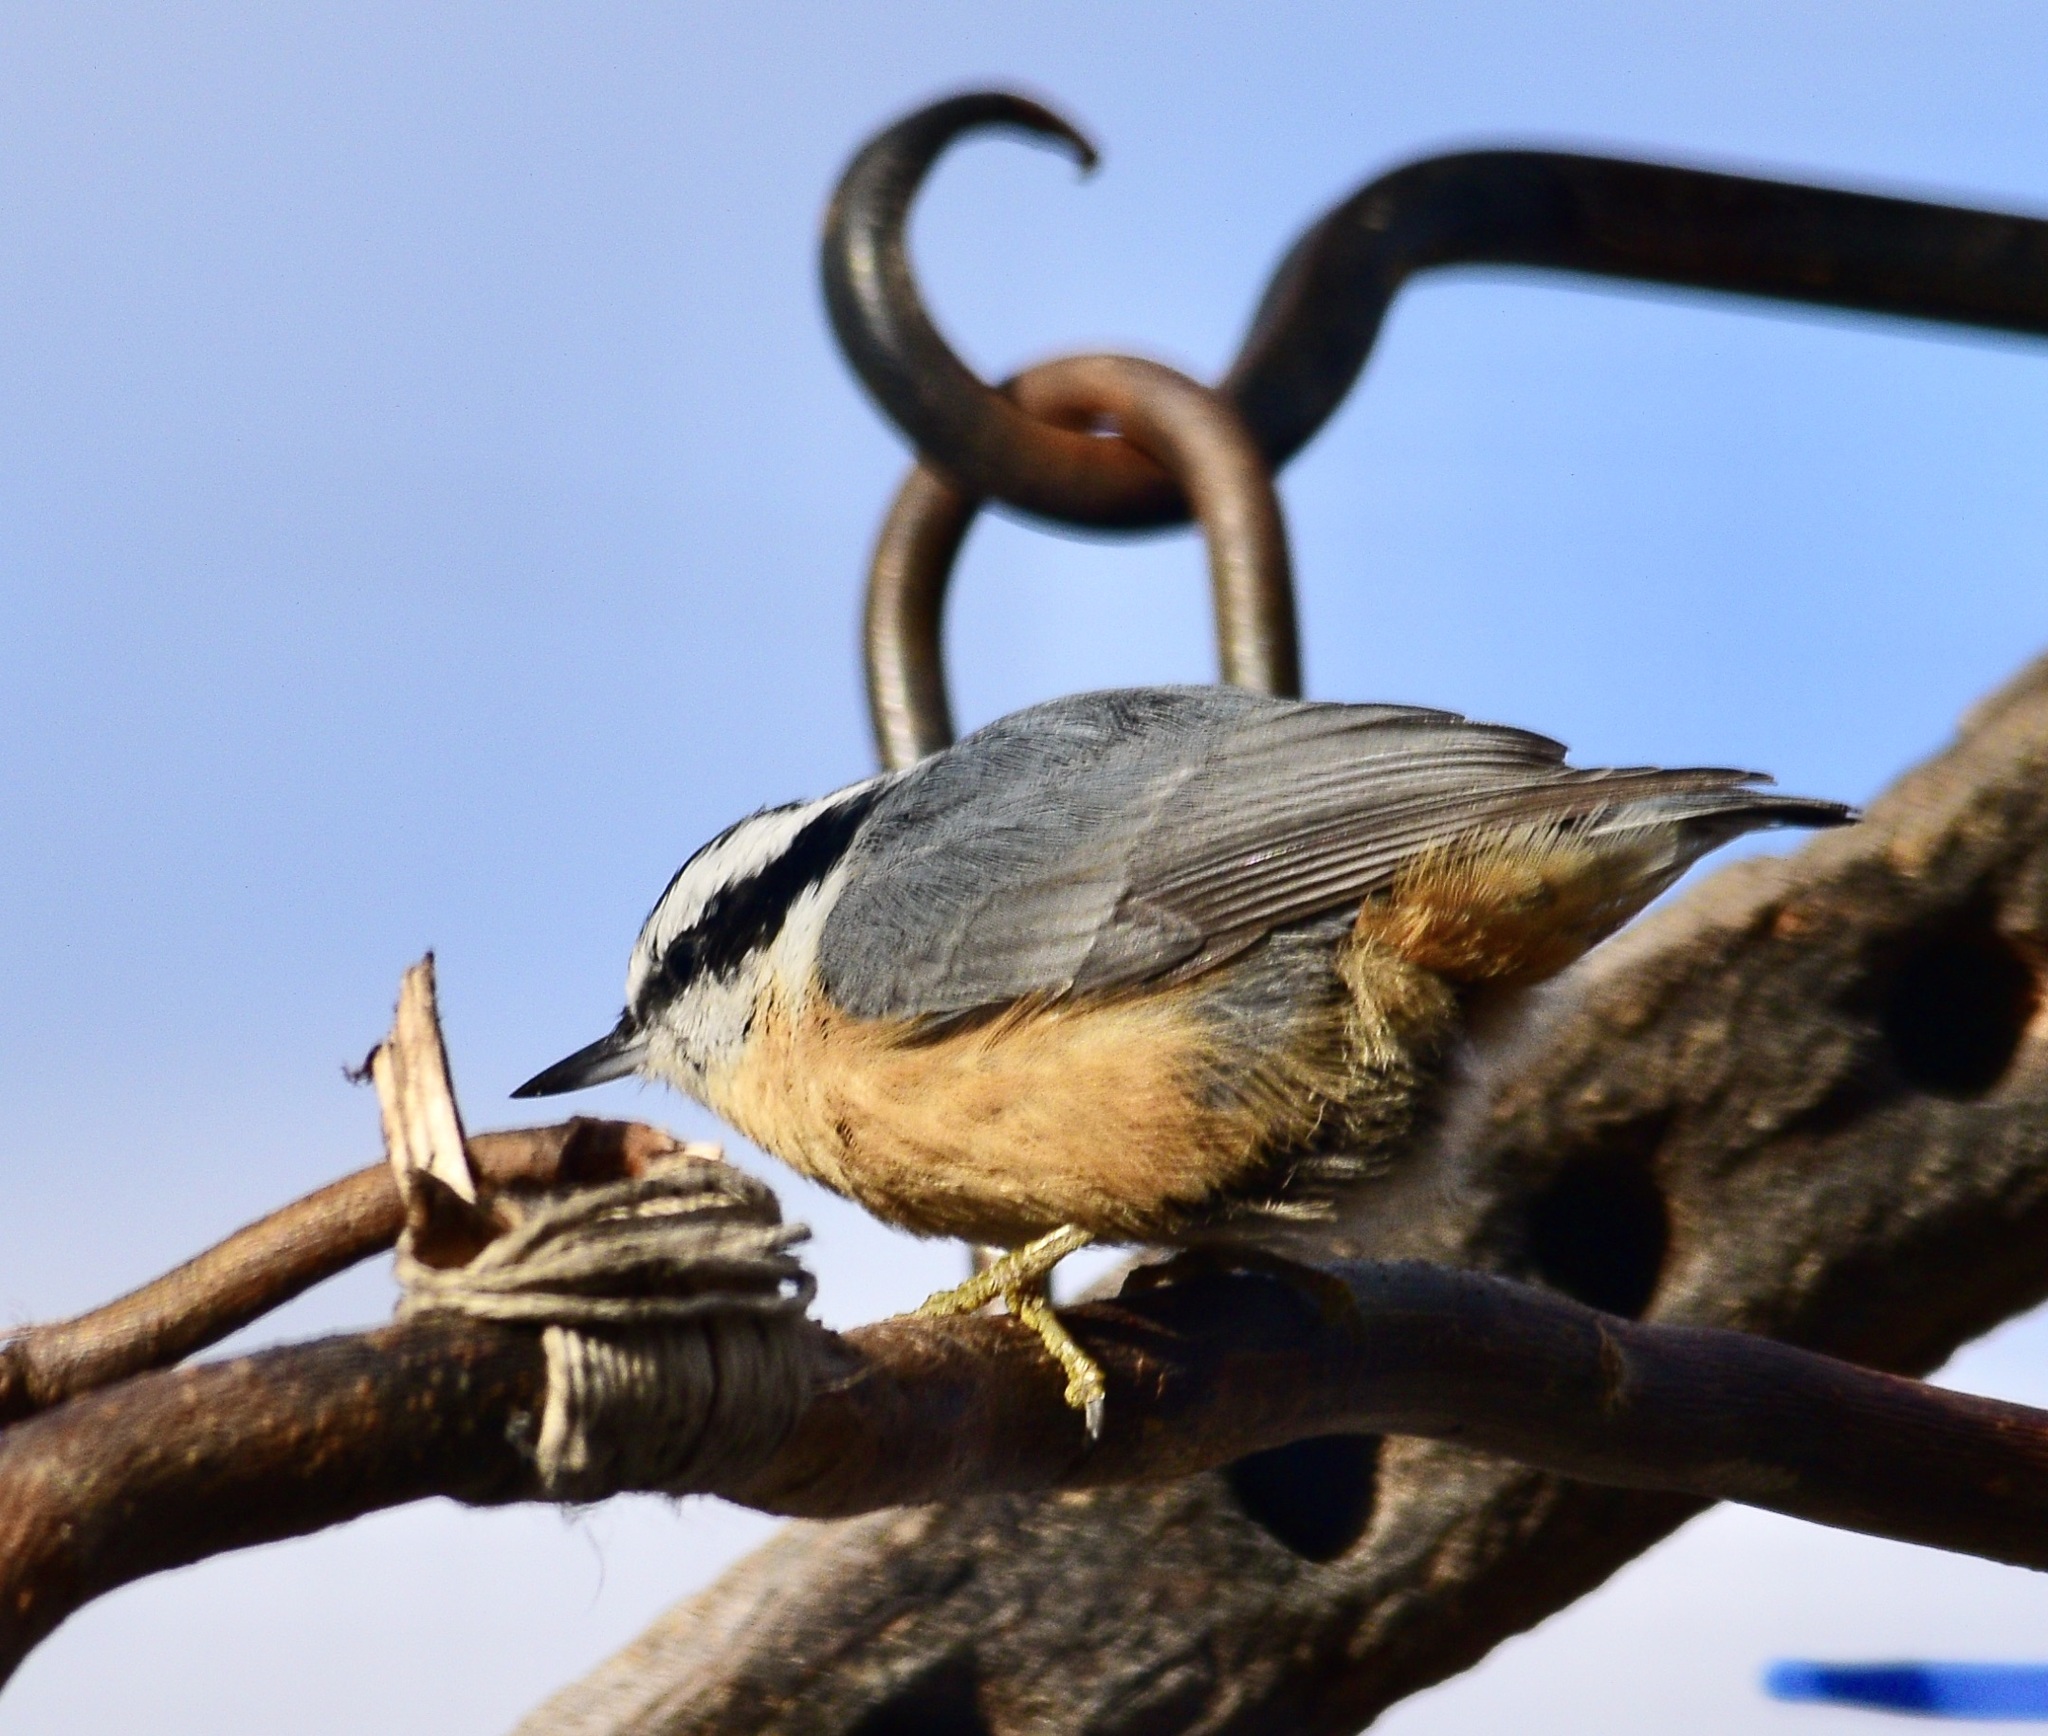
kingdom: Animalia
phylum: Chordata
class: Aves
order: Passeriformes
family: Sittidae
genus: Sitta
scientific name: Sitta canadensis
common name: Red-breasted nuthatch
